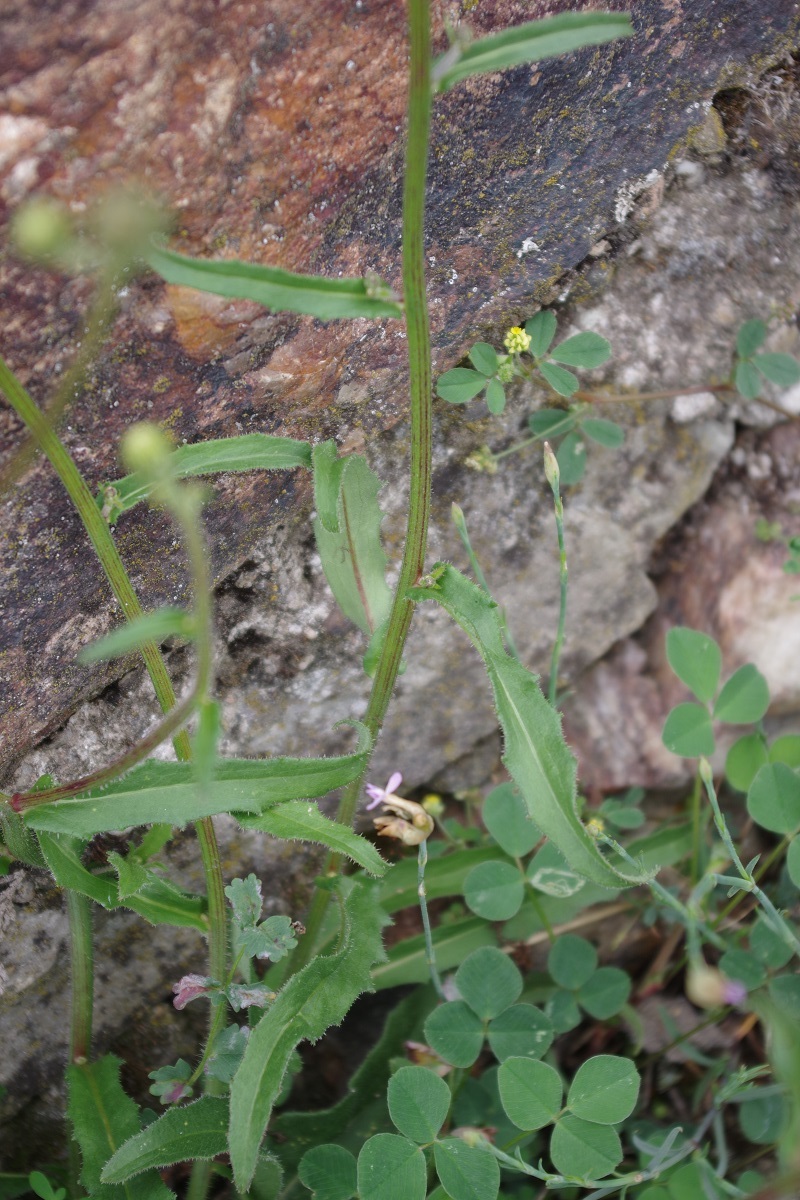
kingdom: Plantae
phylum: Tracheophyta
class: Magnoliopsida
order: Asterales
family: Asteraceae
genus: Picris
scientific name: Picris hieracioides
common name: Hawkweed oxtongue
